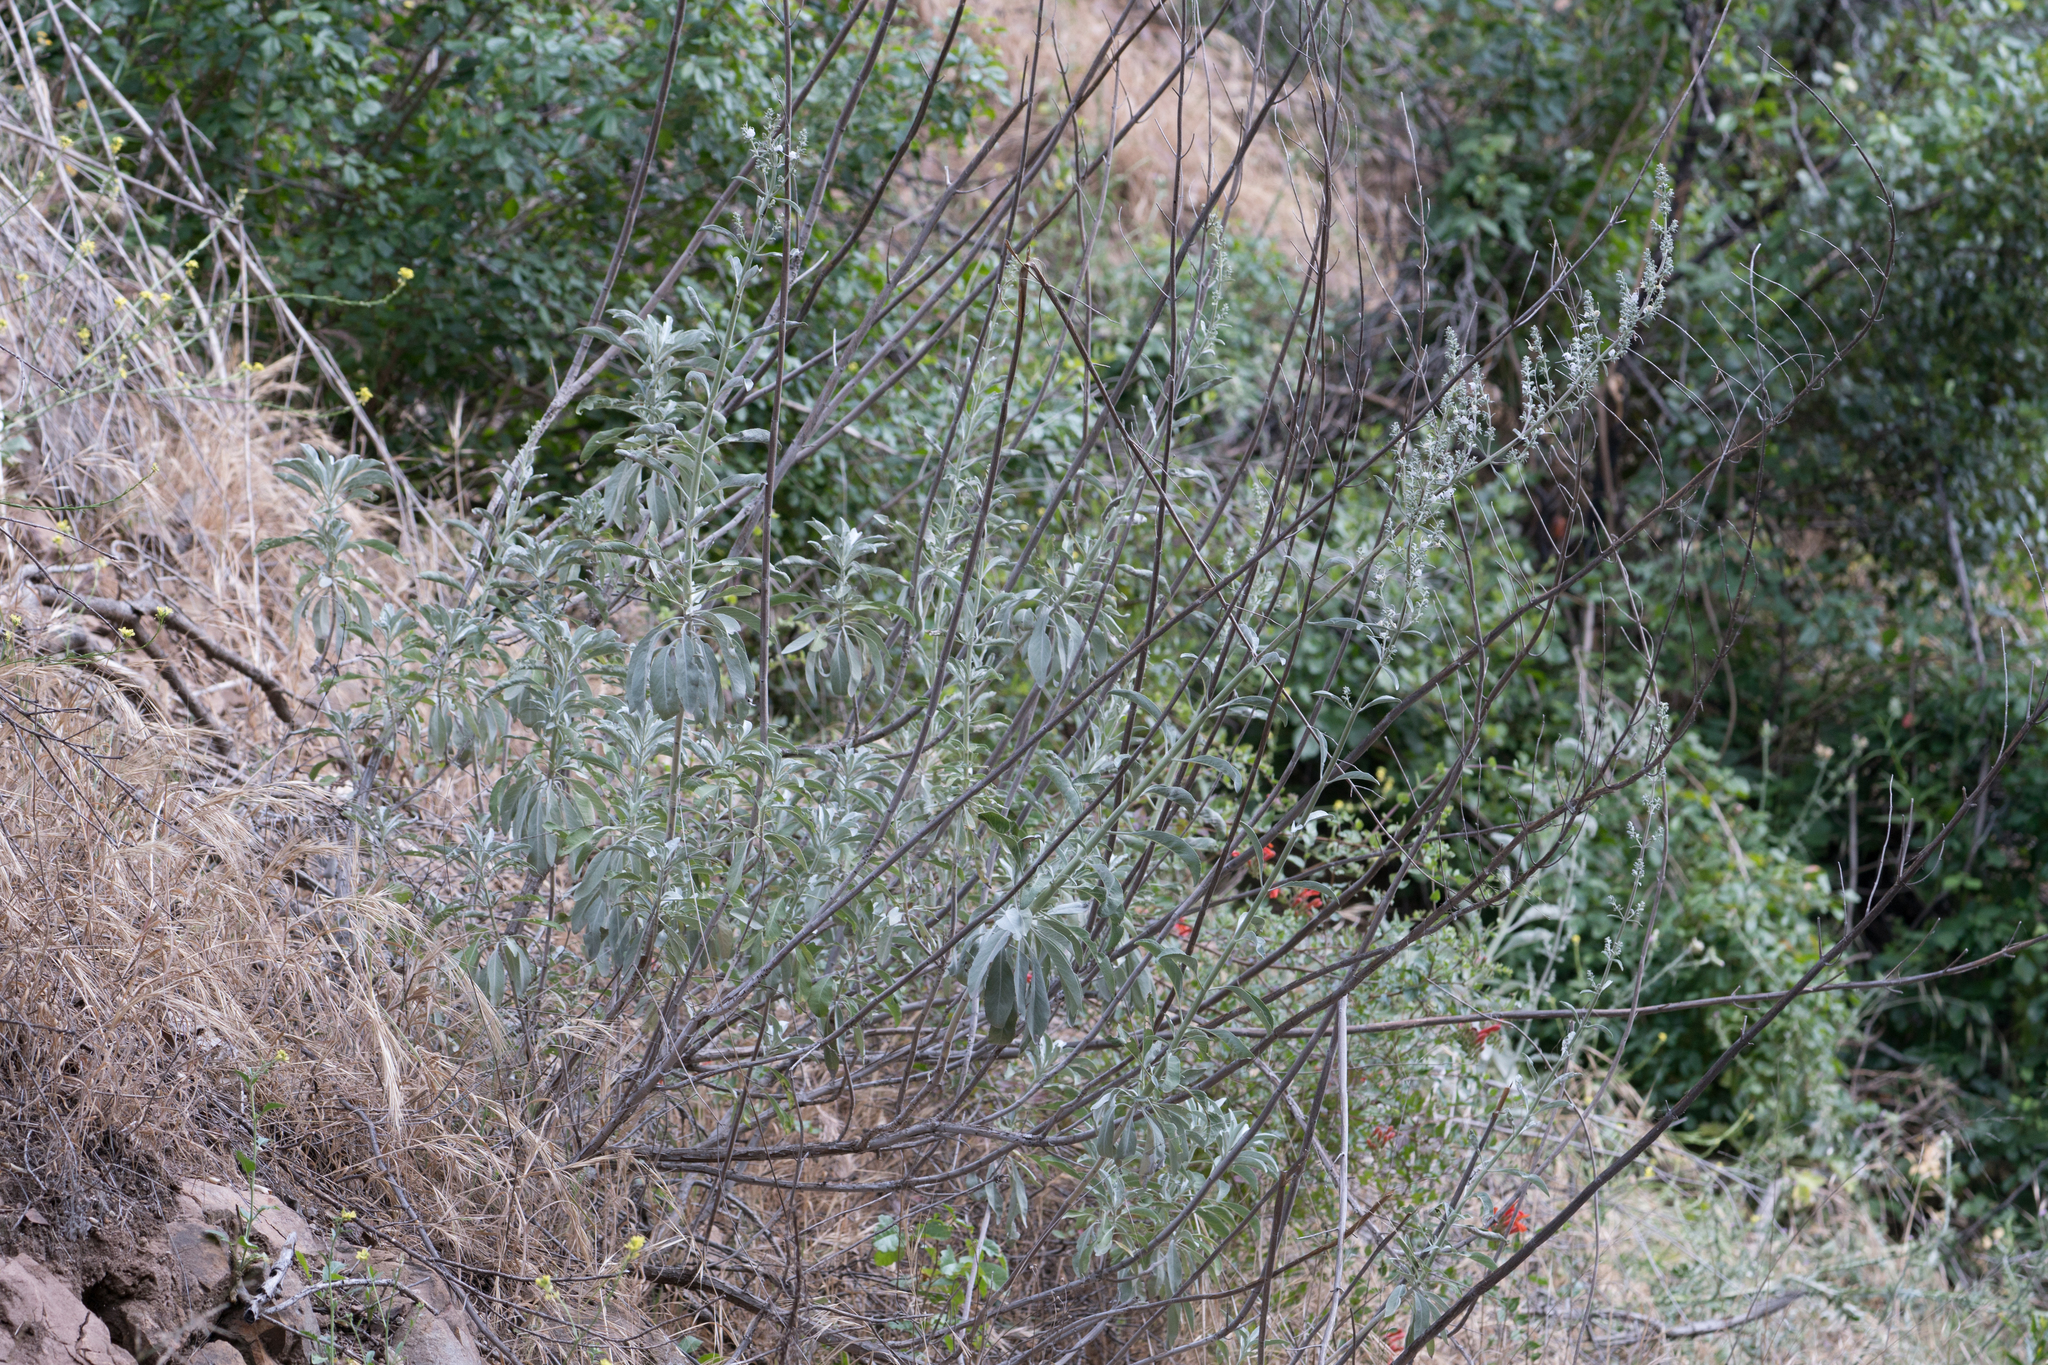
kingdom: Plantae
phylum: Tracheophyta
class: Magnoliopsida
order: Lamiales
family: Lamiaceae
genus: Salvia
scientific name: Salvia apiana
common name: White sage
